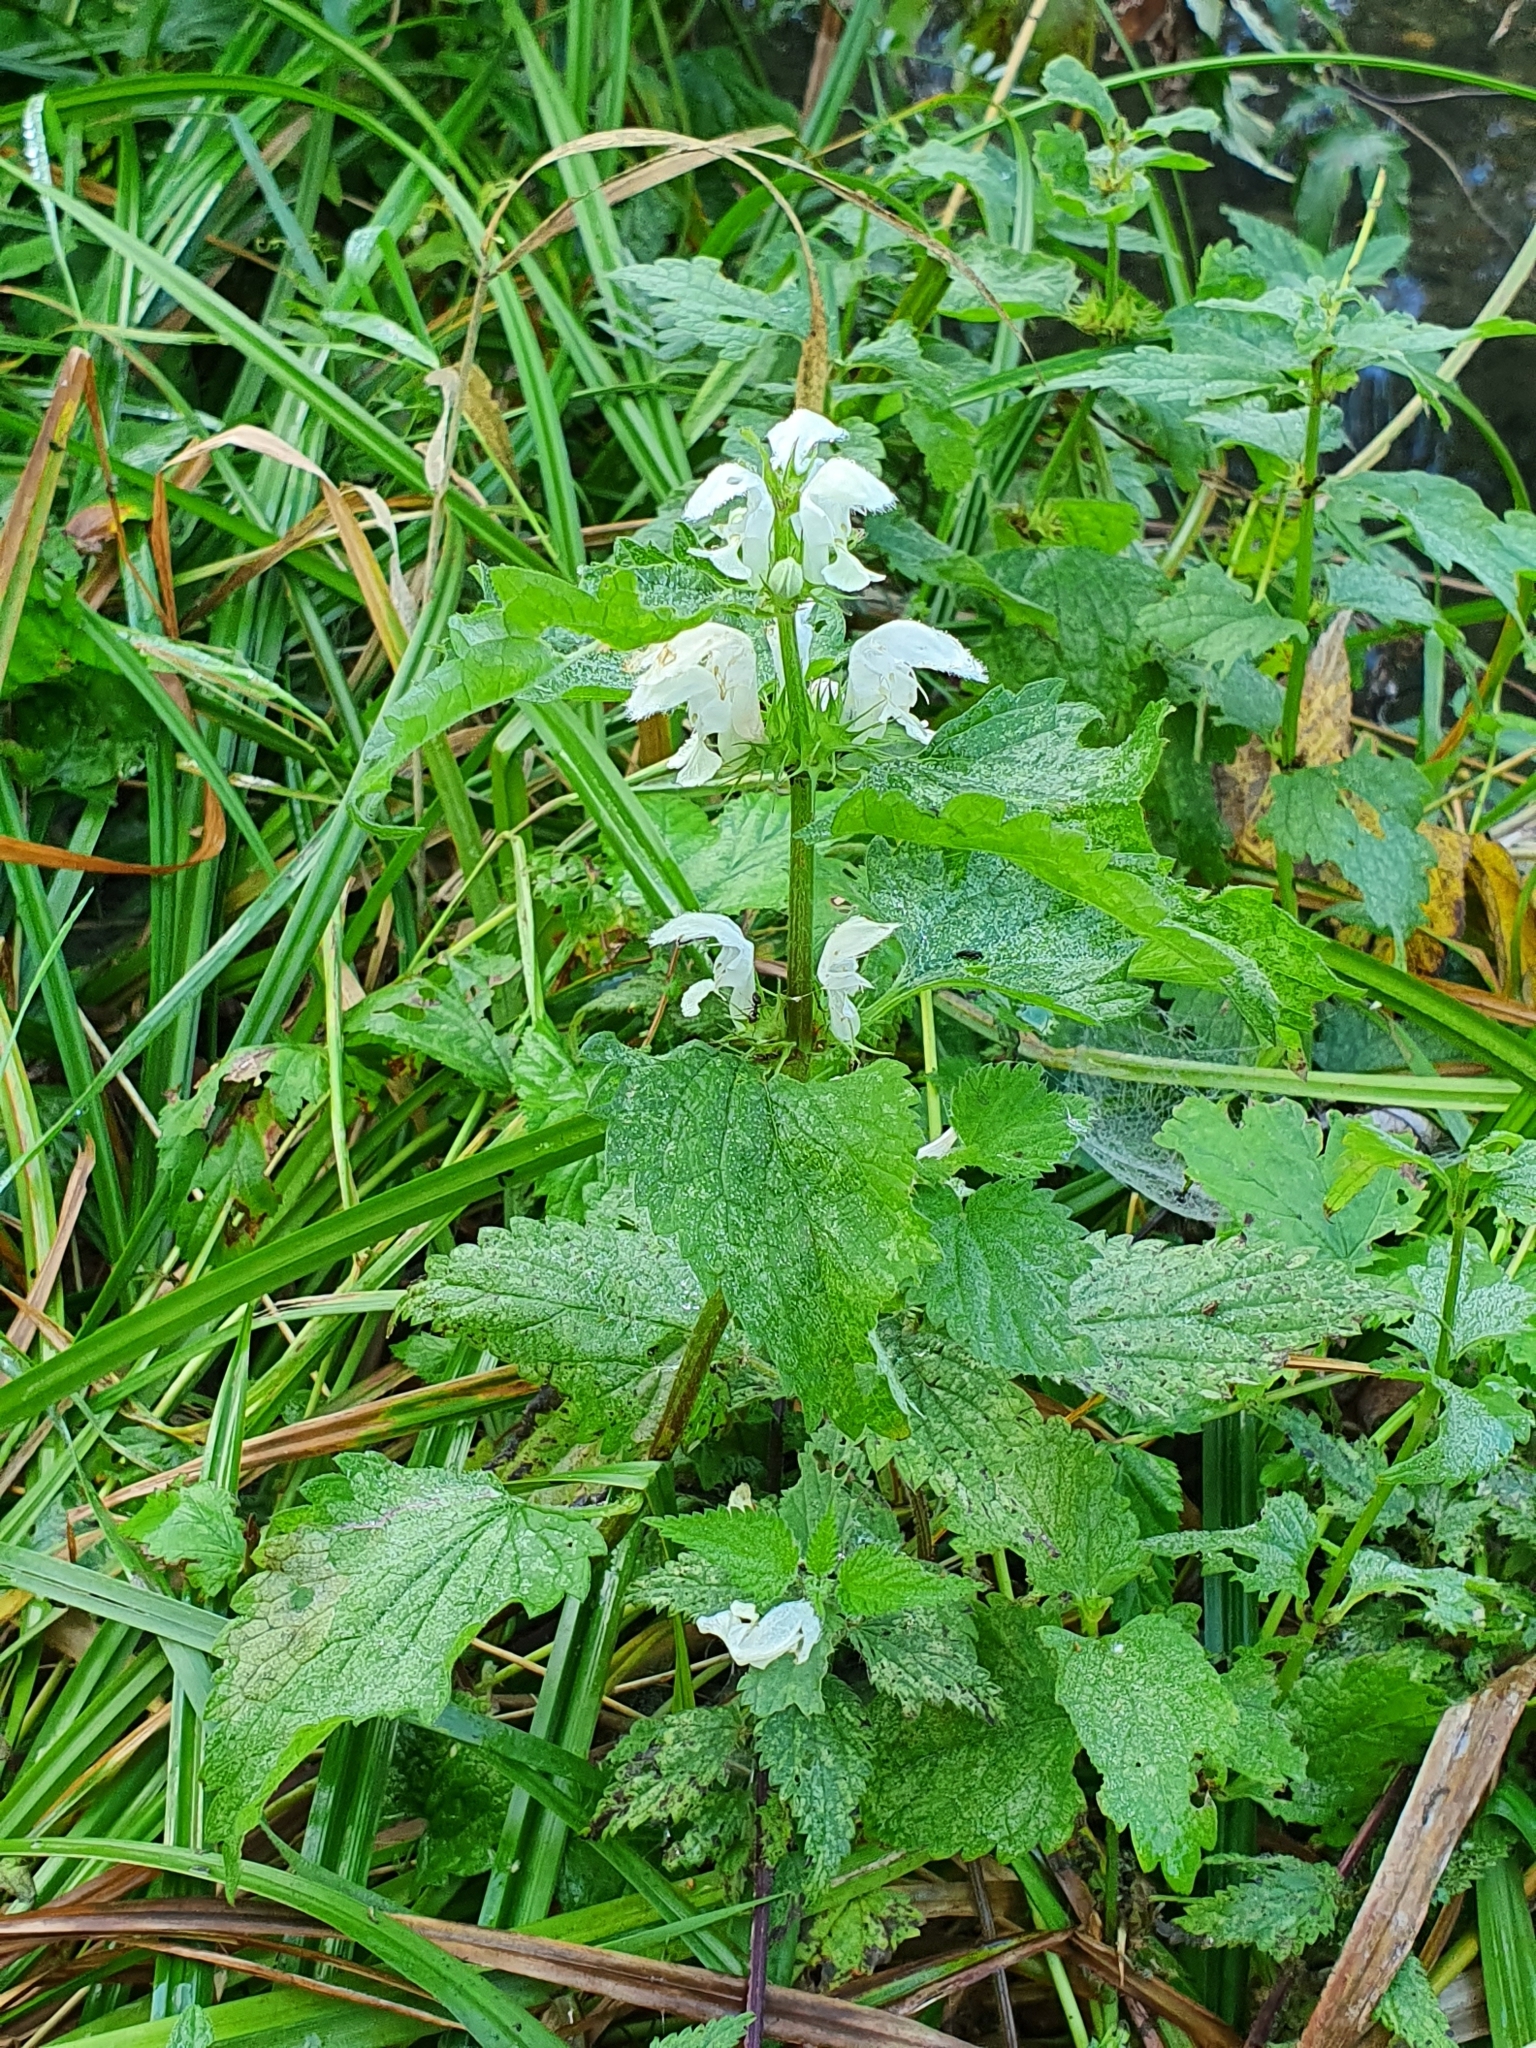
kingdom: Plantae
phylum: Tracheophyta
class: Magnoliopsida
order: Lamiales
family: Lamiaceae
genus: Lamium
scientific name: Lamium album
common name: White dead-nettle
